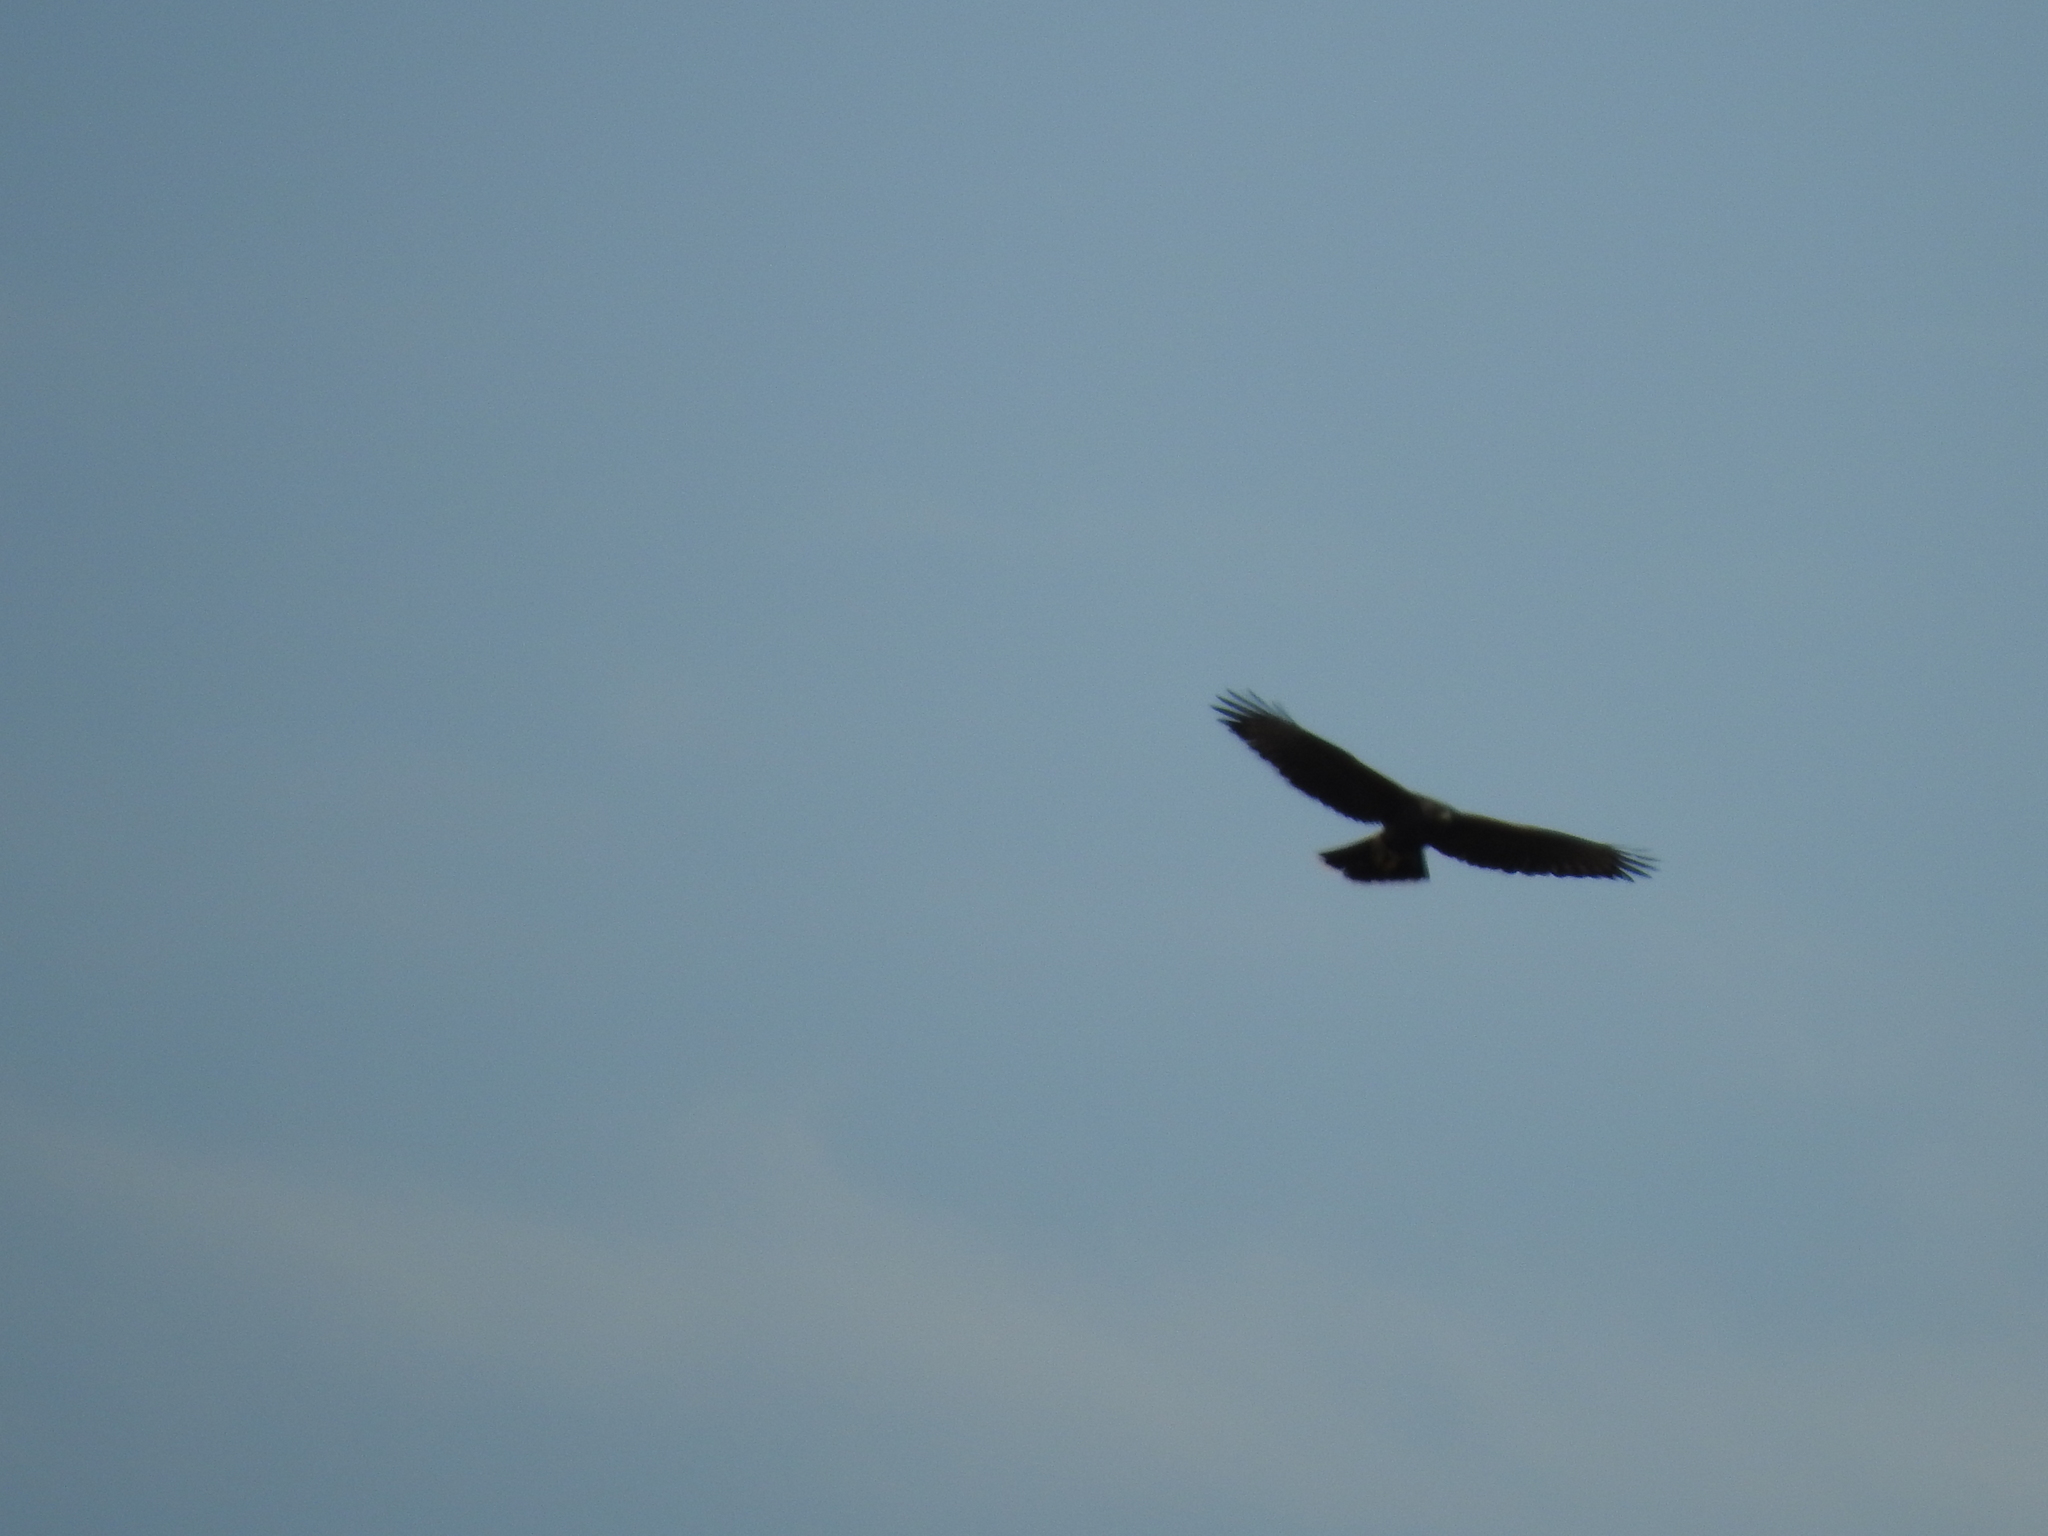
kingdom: Animalia
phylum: Chordata
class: Aves
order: Accipitriformes
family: Accipitridae
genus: Parabuteo
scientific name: Parabuteo unicinctus
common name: Harris's hawk
